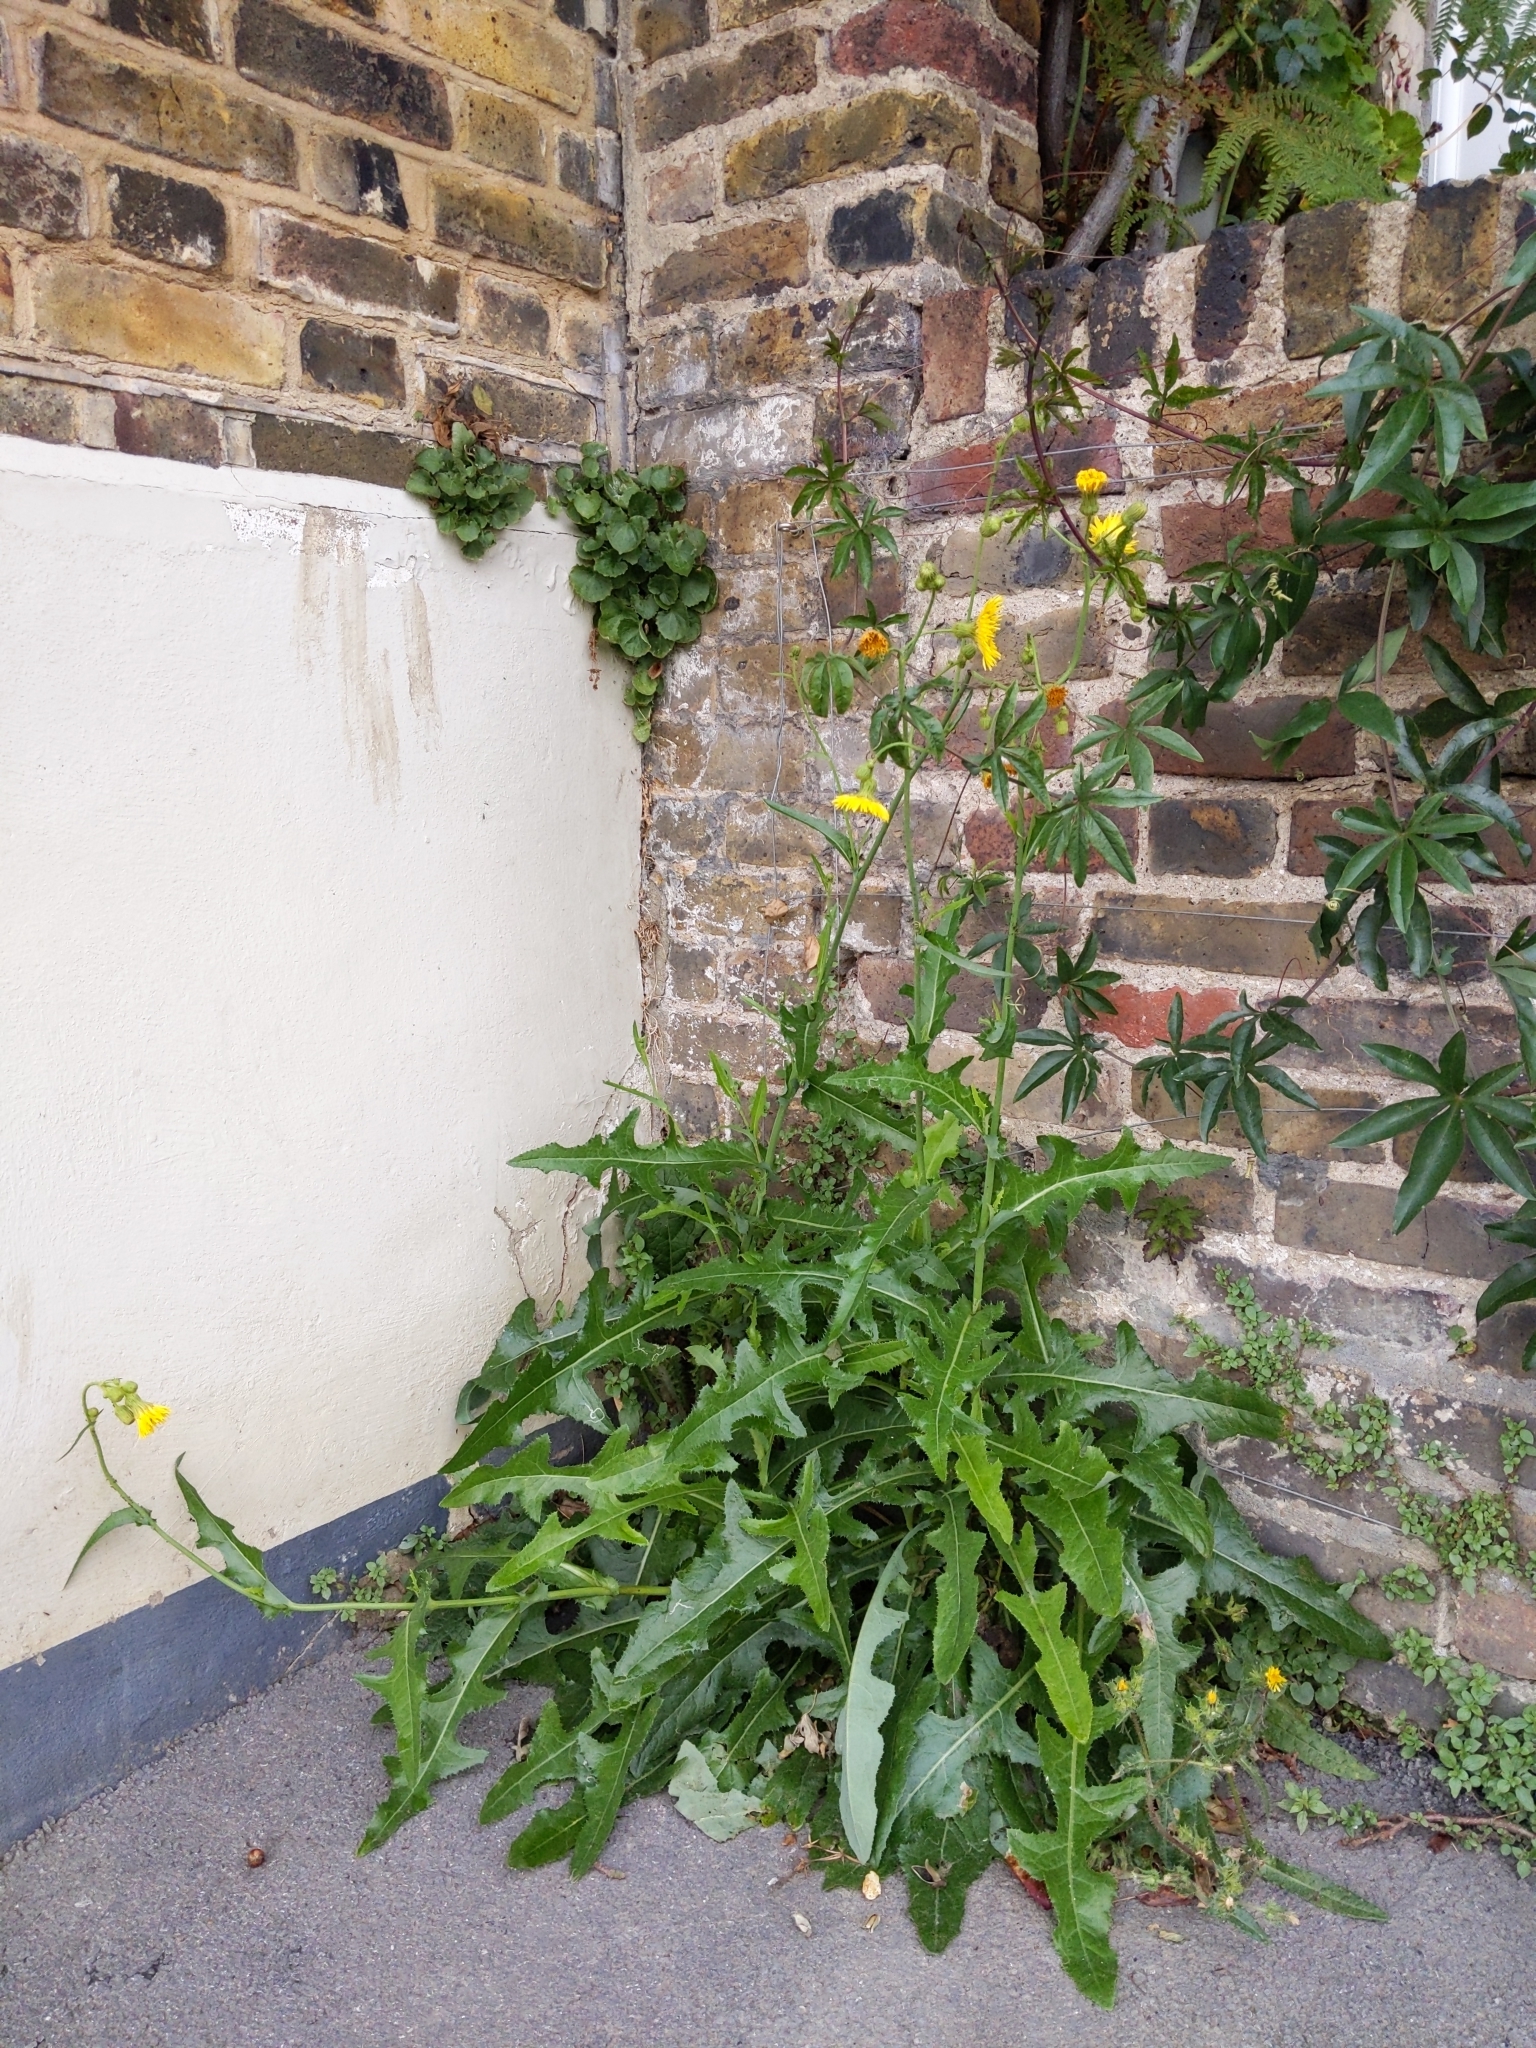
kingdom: Plantae
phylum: Tracheophyta
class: Magnoliopsida
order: Asterales
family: Asteraceae
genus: Sonchus
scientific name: Sonchus arvensis
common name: Perennial sow-thistle
